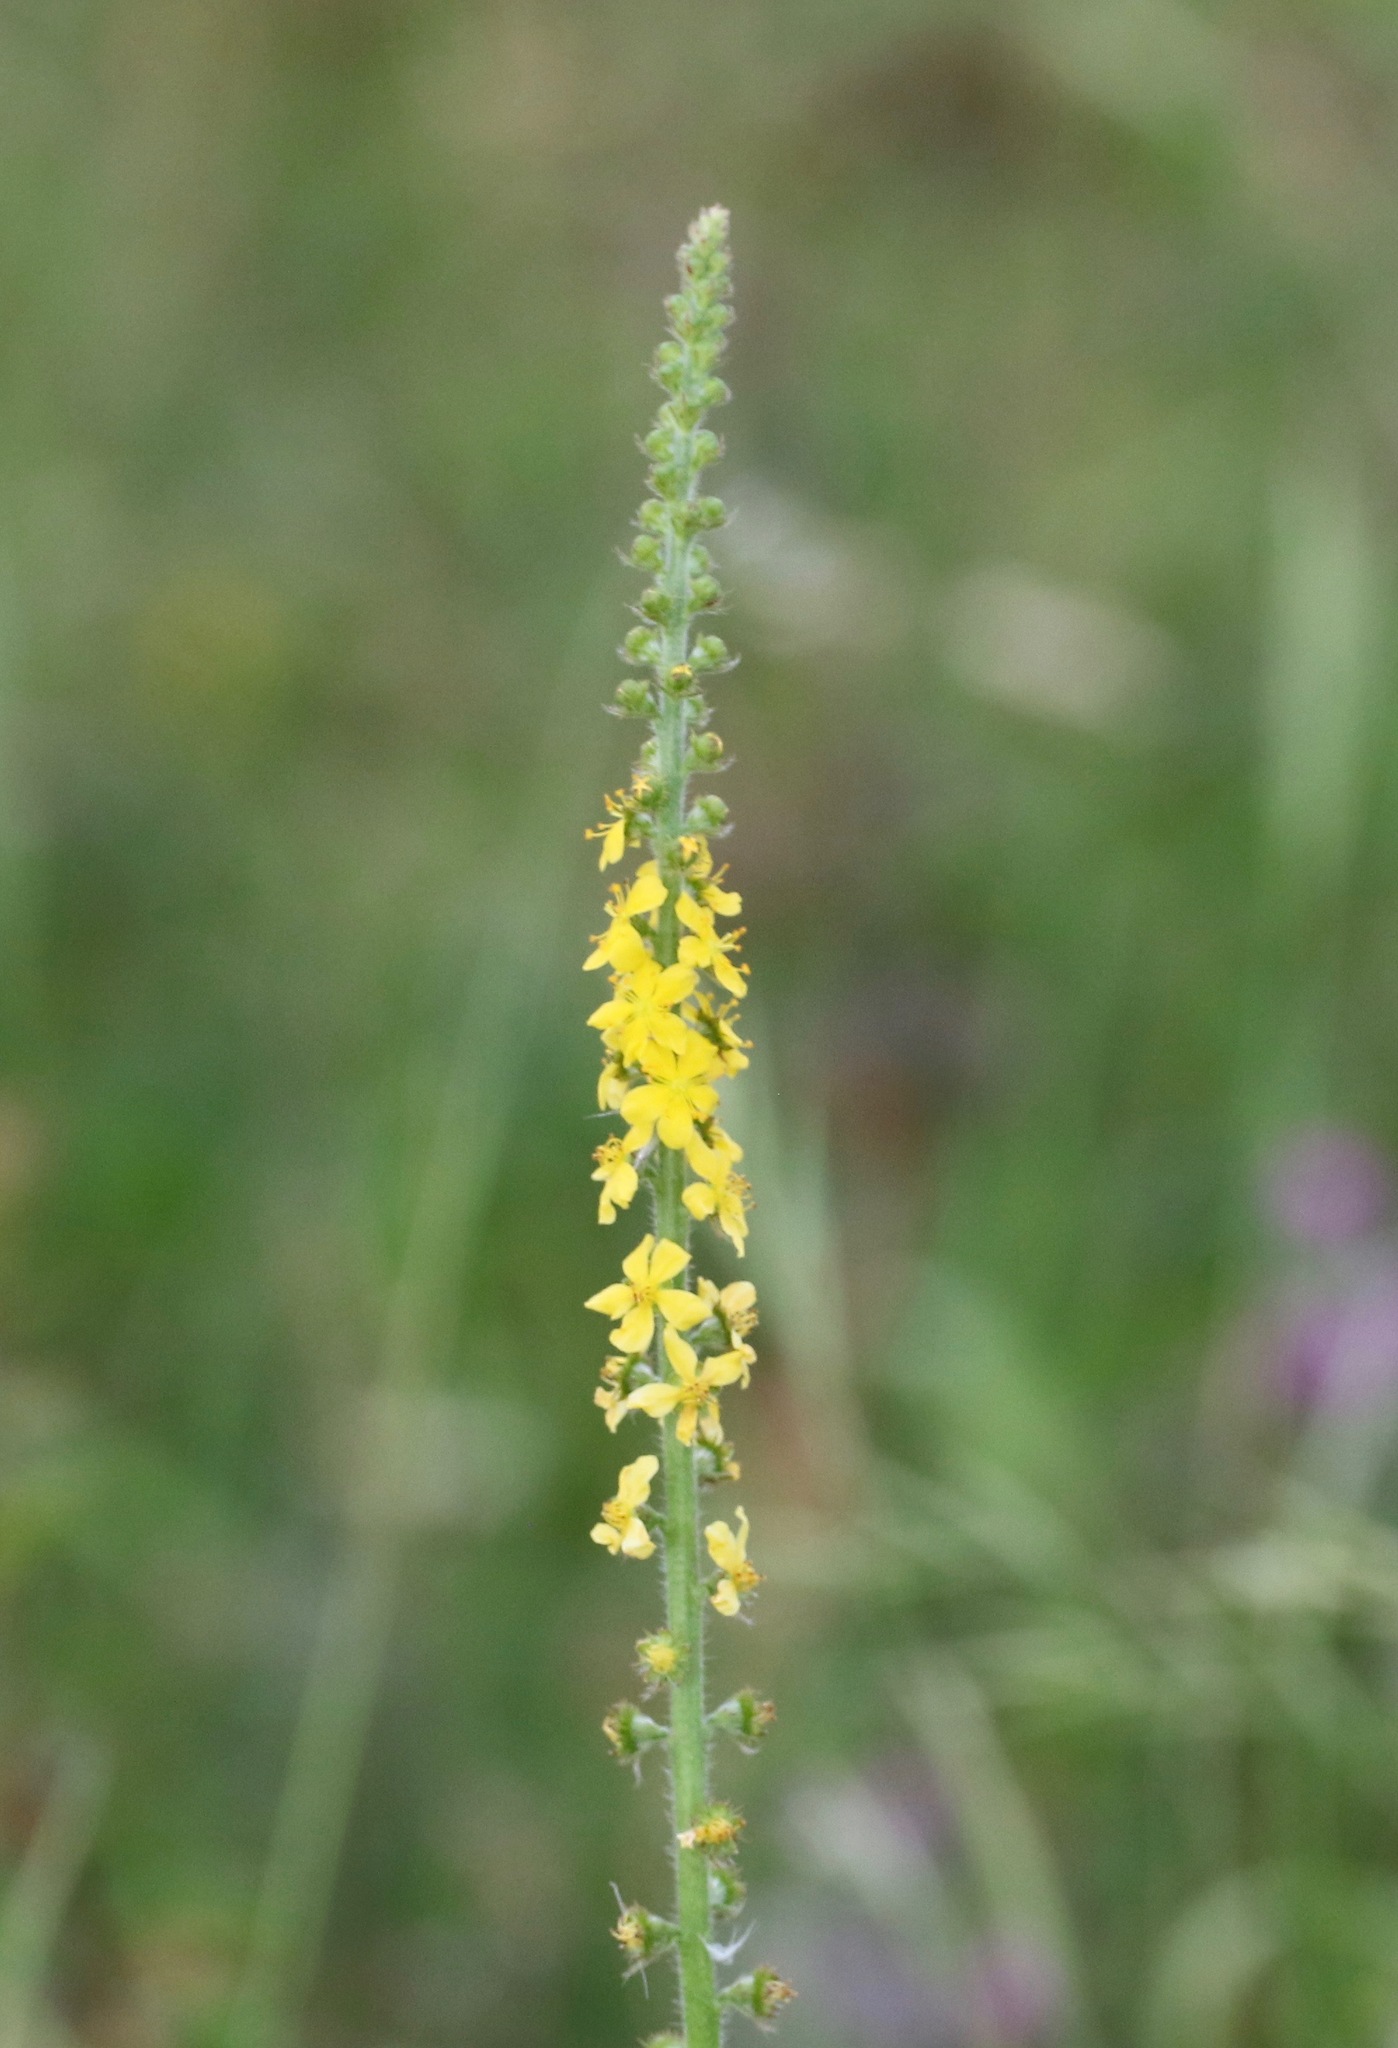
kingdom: Plantae
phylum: Tracheophyta
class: Magnoliopsida
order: Rosales
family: Rosaceae
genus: Agrimonia
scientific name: Agrimonia eupatoria
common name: Agrimony
